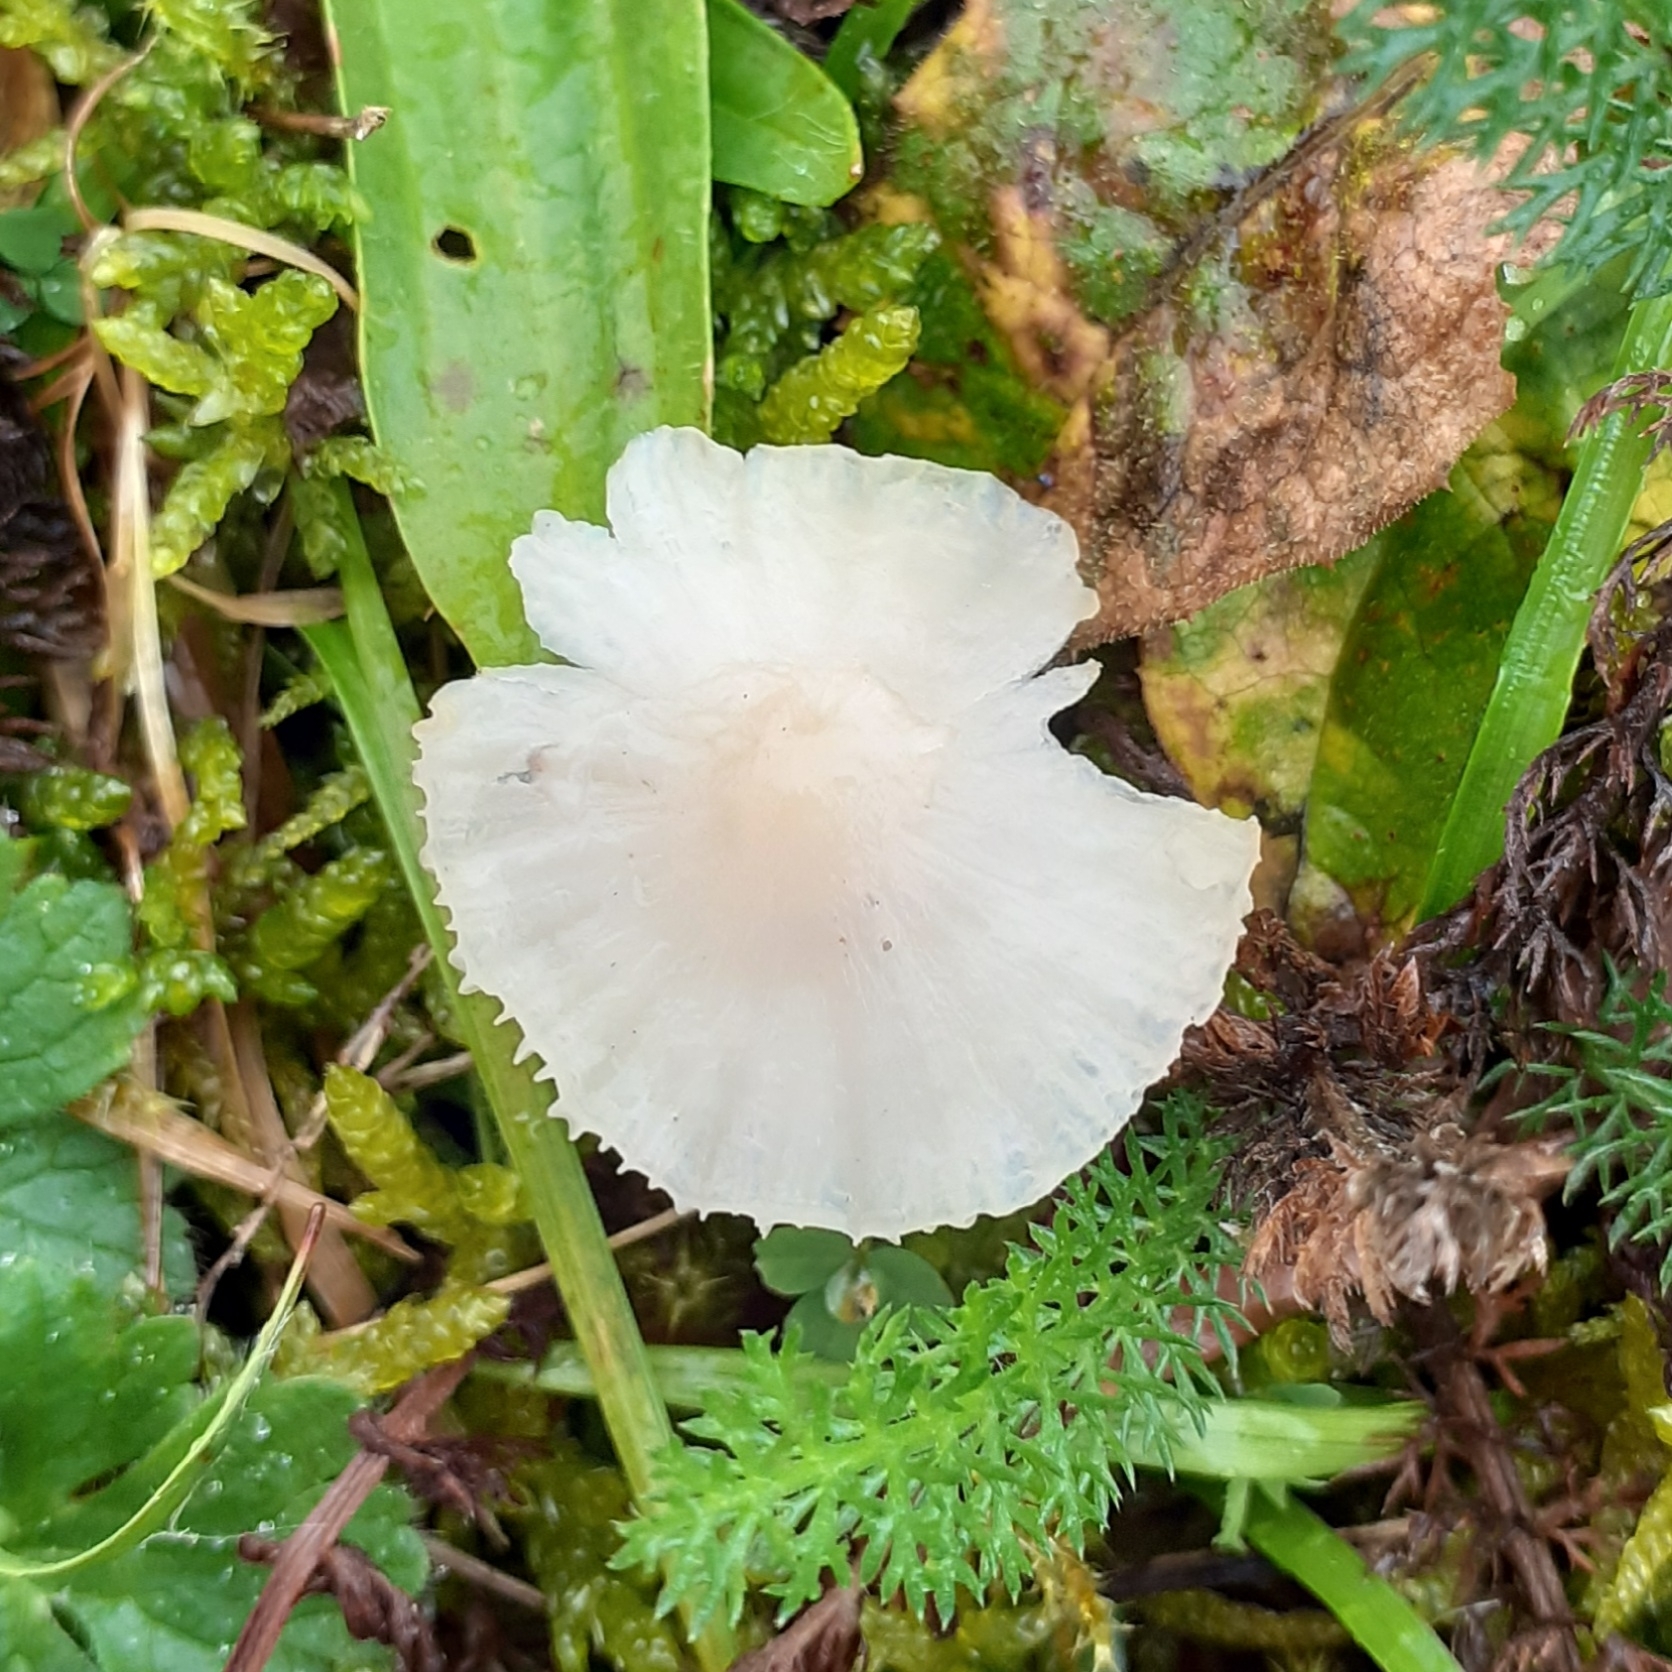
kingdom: Fungi
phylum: Basidiomycota
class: Agaricomycetes
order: Agaricales
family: Hygrophoraceae
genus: Cuphophyllus
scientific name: Cuphophyllus virgineus
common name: Snowy waxcap
